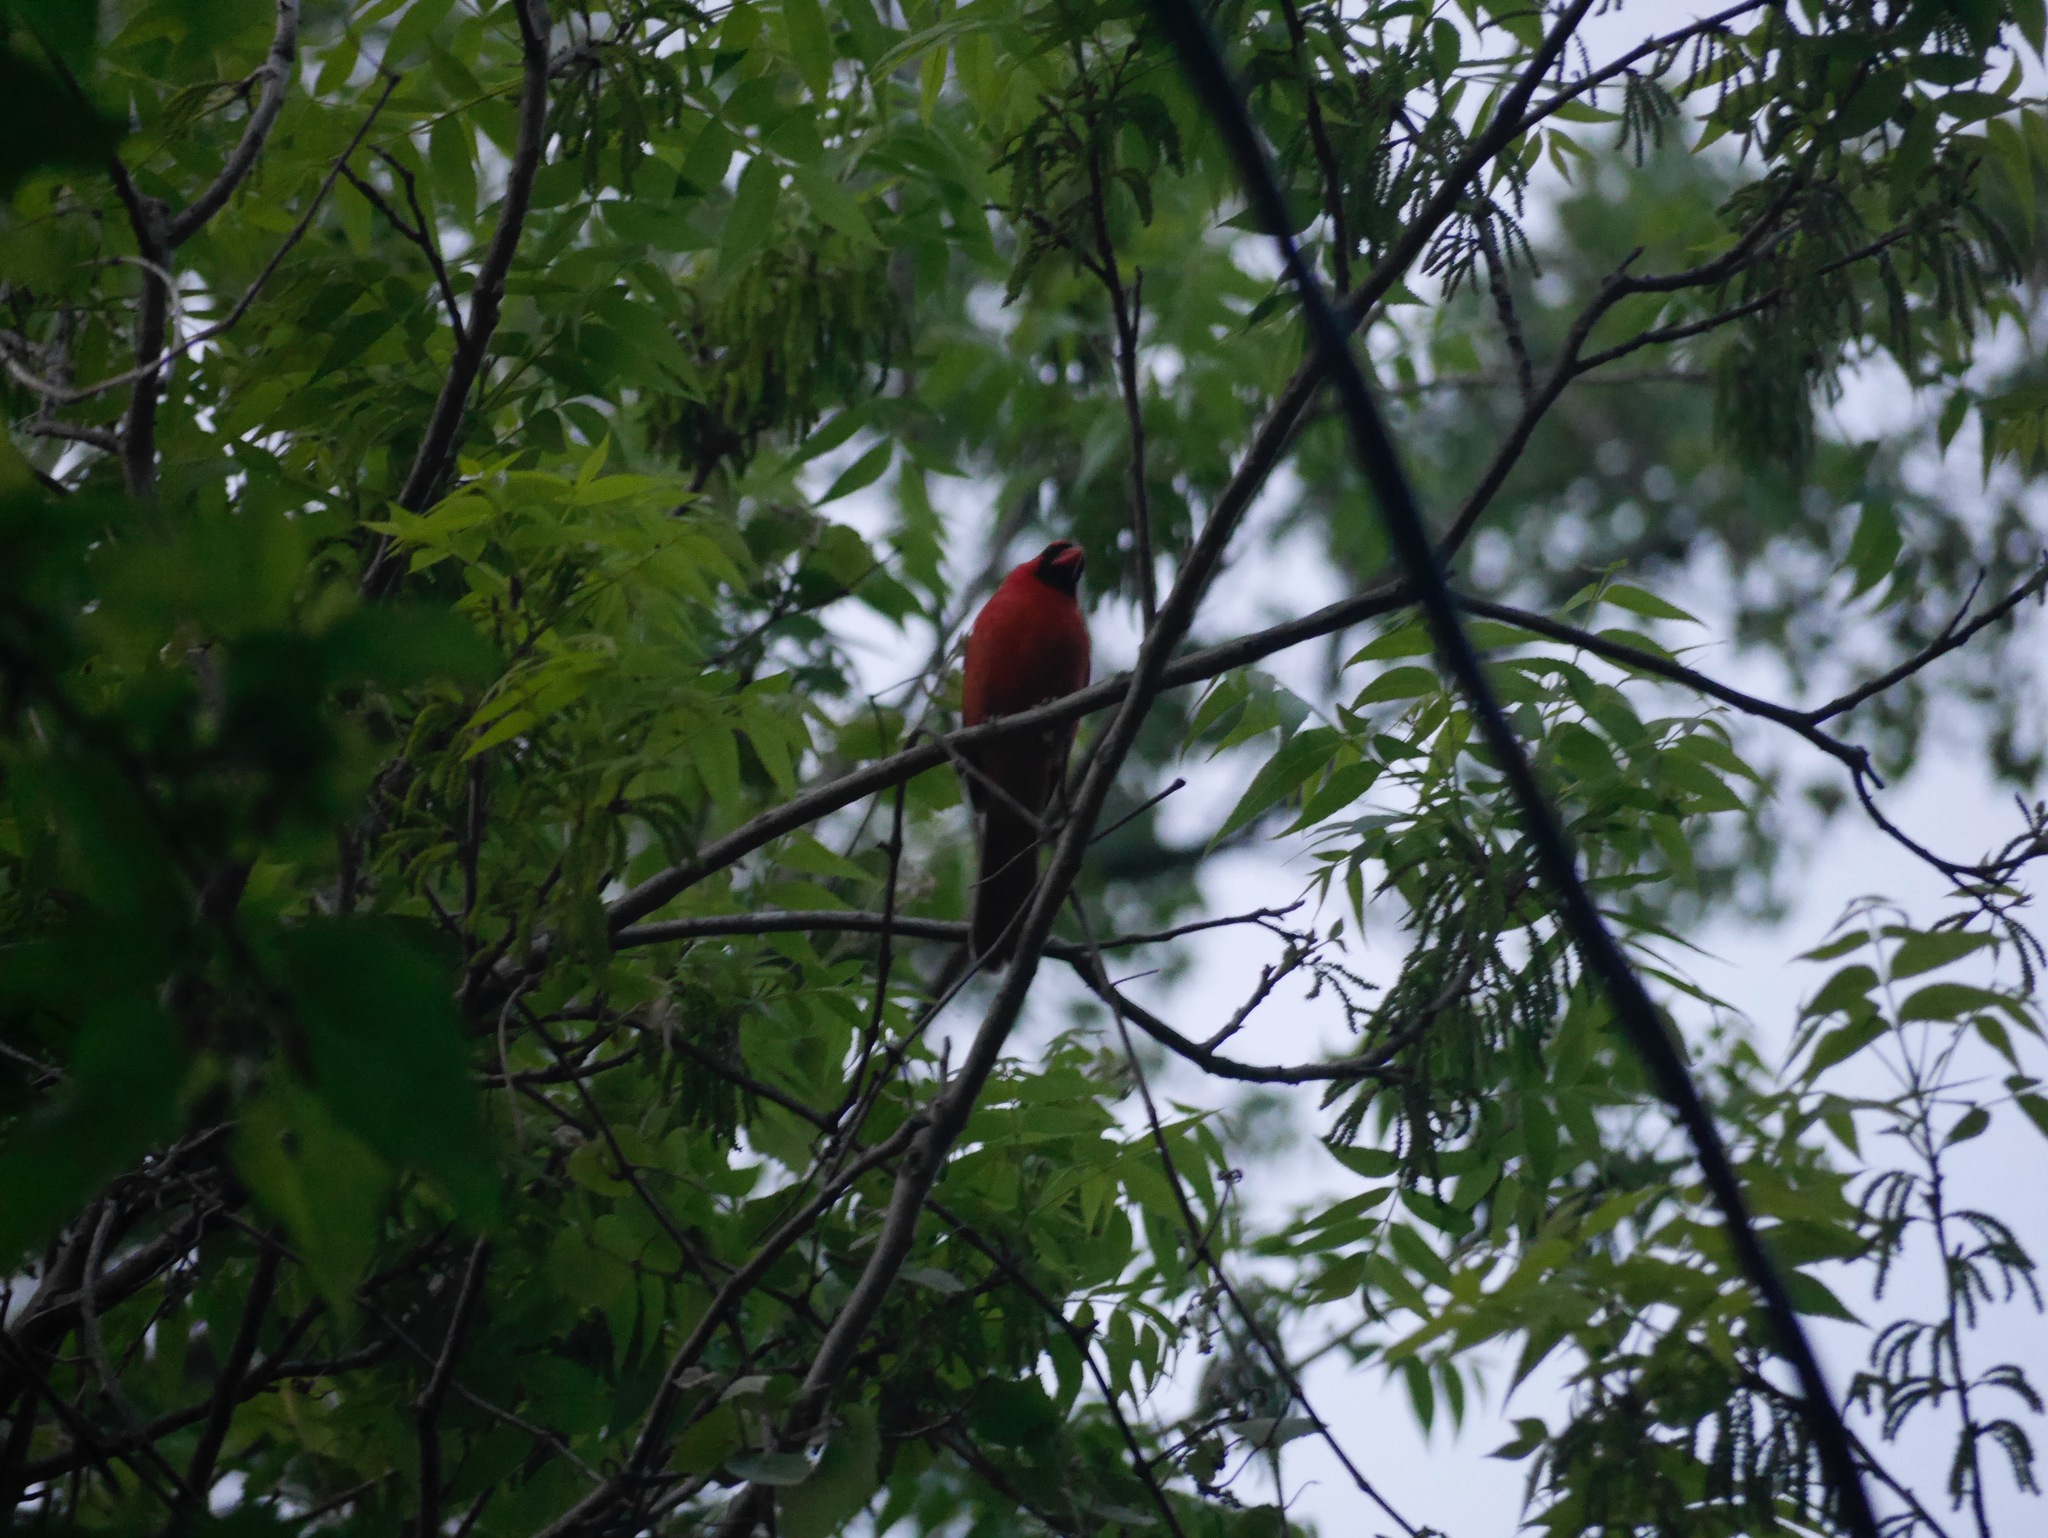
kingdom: Animalia
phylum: Chordata
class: Aves
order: Passeriformes
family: Cardinalidae
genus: Cardinalis
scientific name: Cardinalis cardinalis
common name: Northern cardinal
